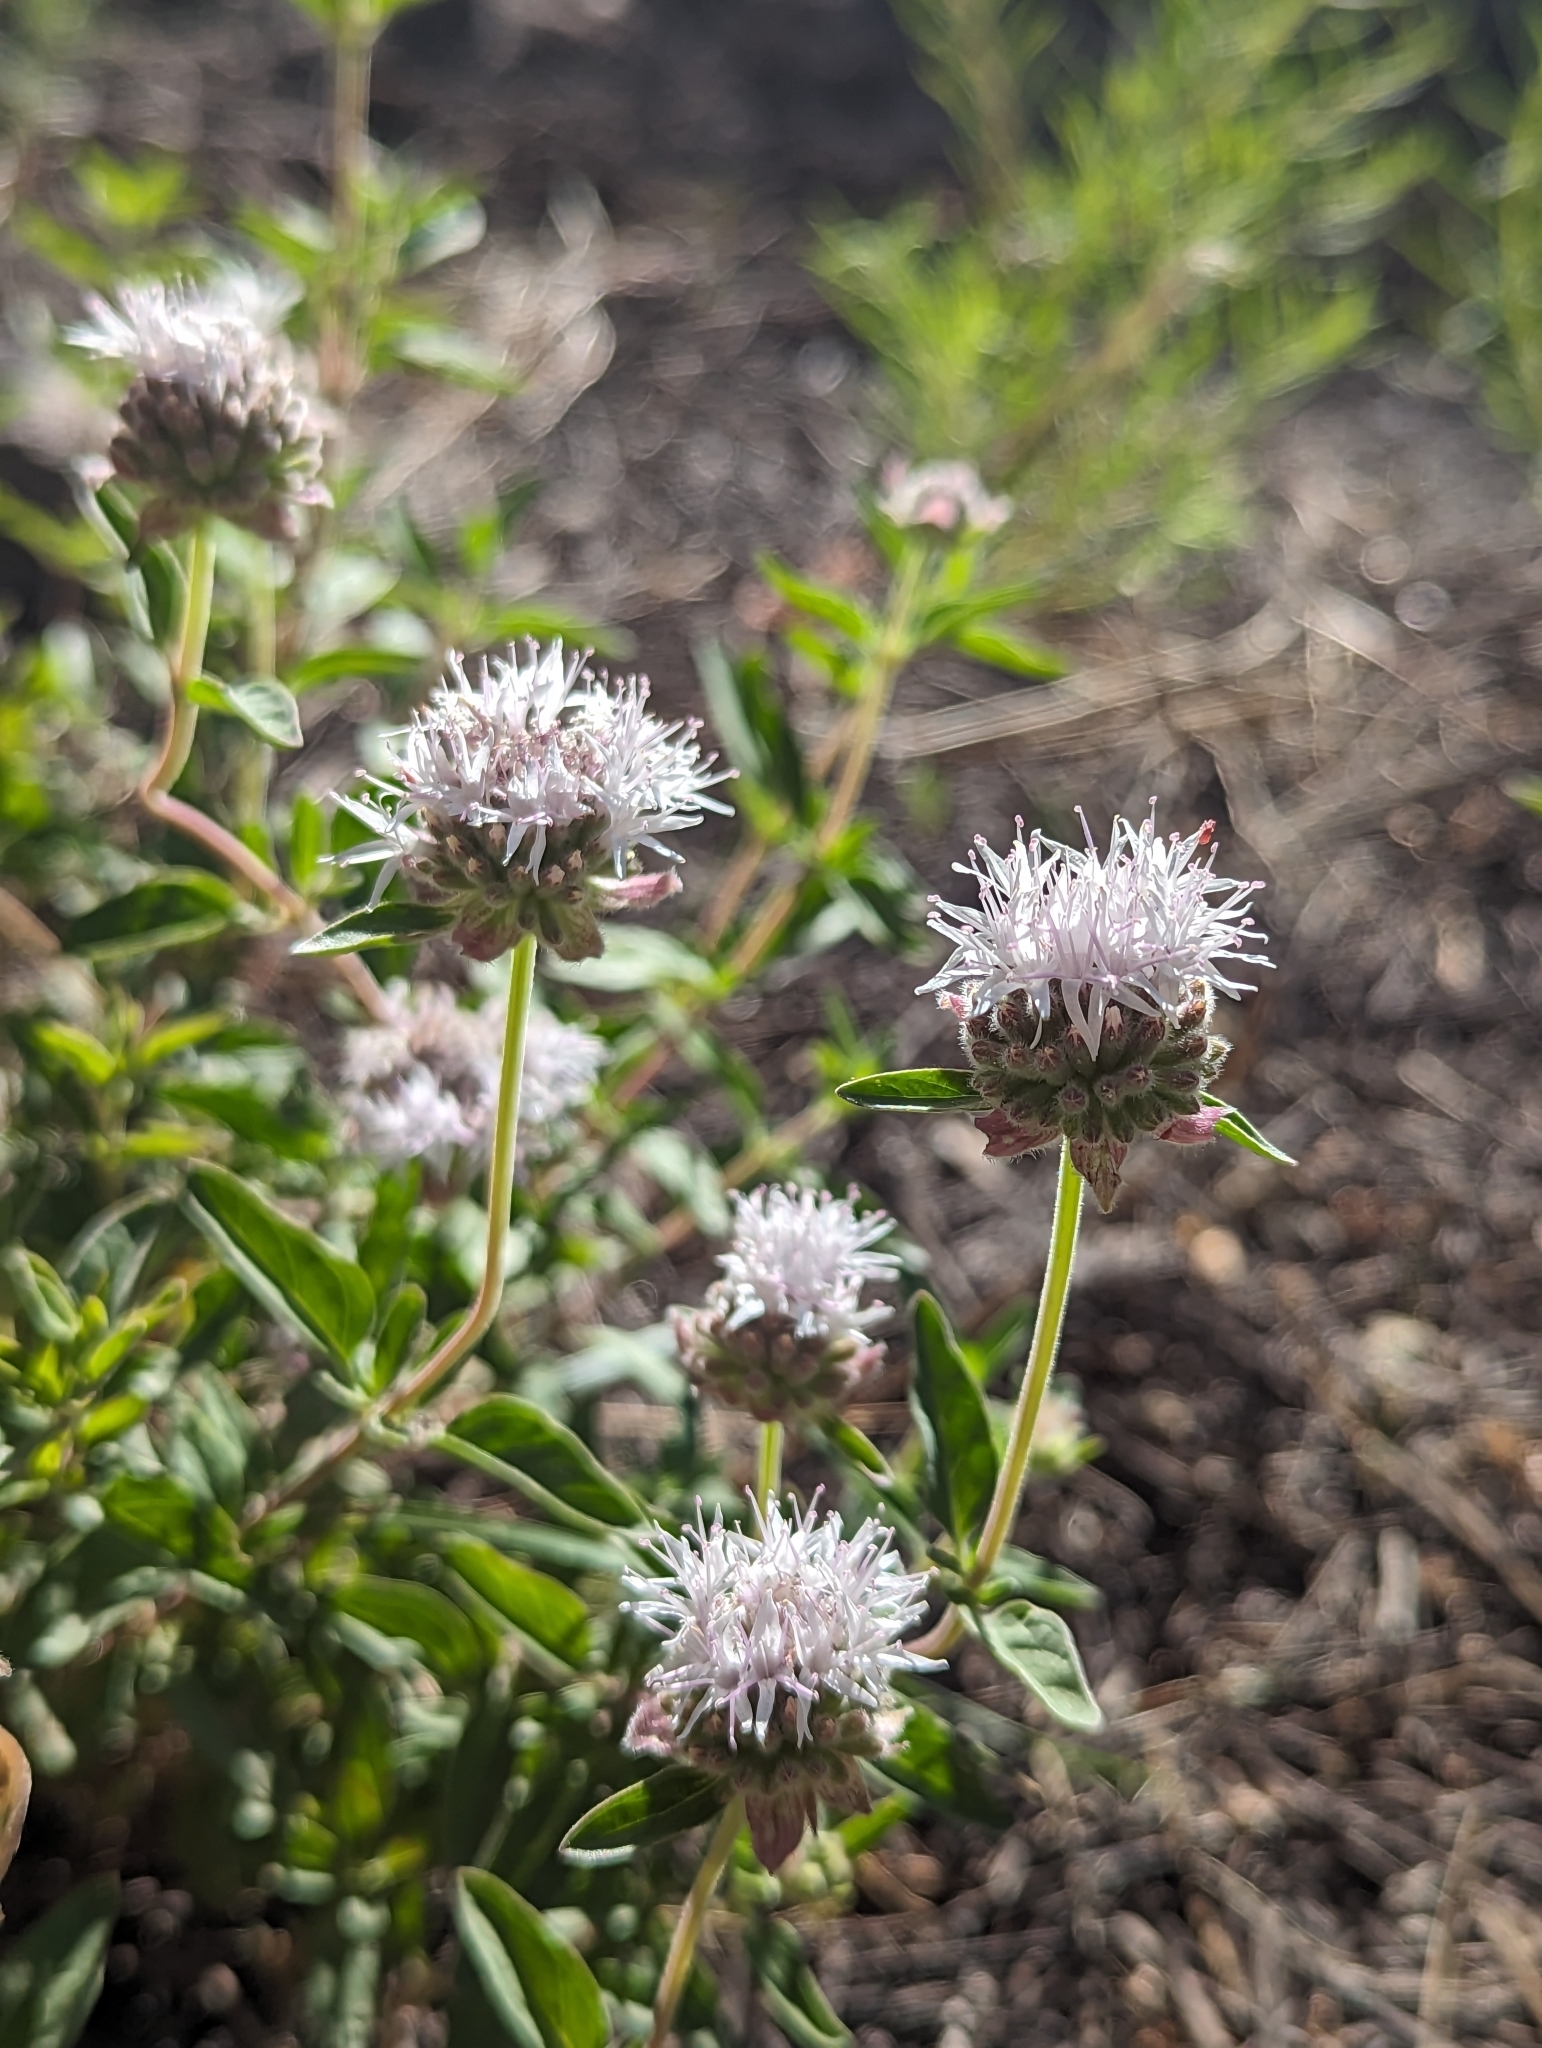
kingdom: Plantae
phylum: Tracheophyta
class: Magnoliopsida
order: Lamiales
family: Lamiaceae
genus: Monardella
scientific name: Monardella odoratissima
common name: Pacific monardella
